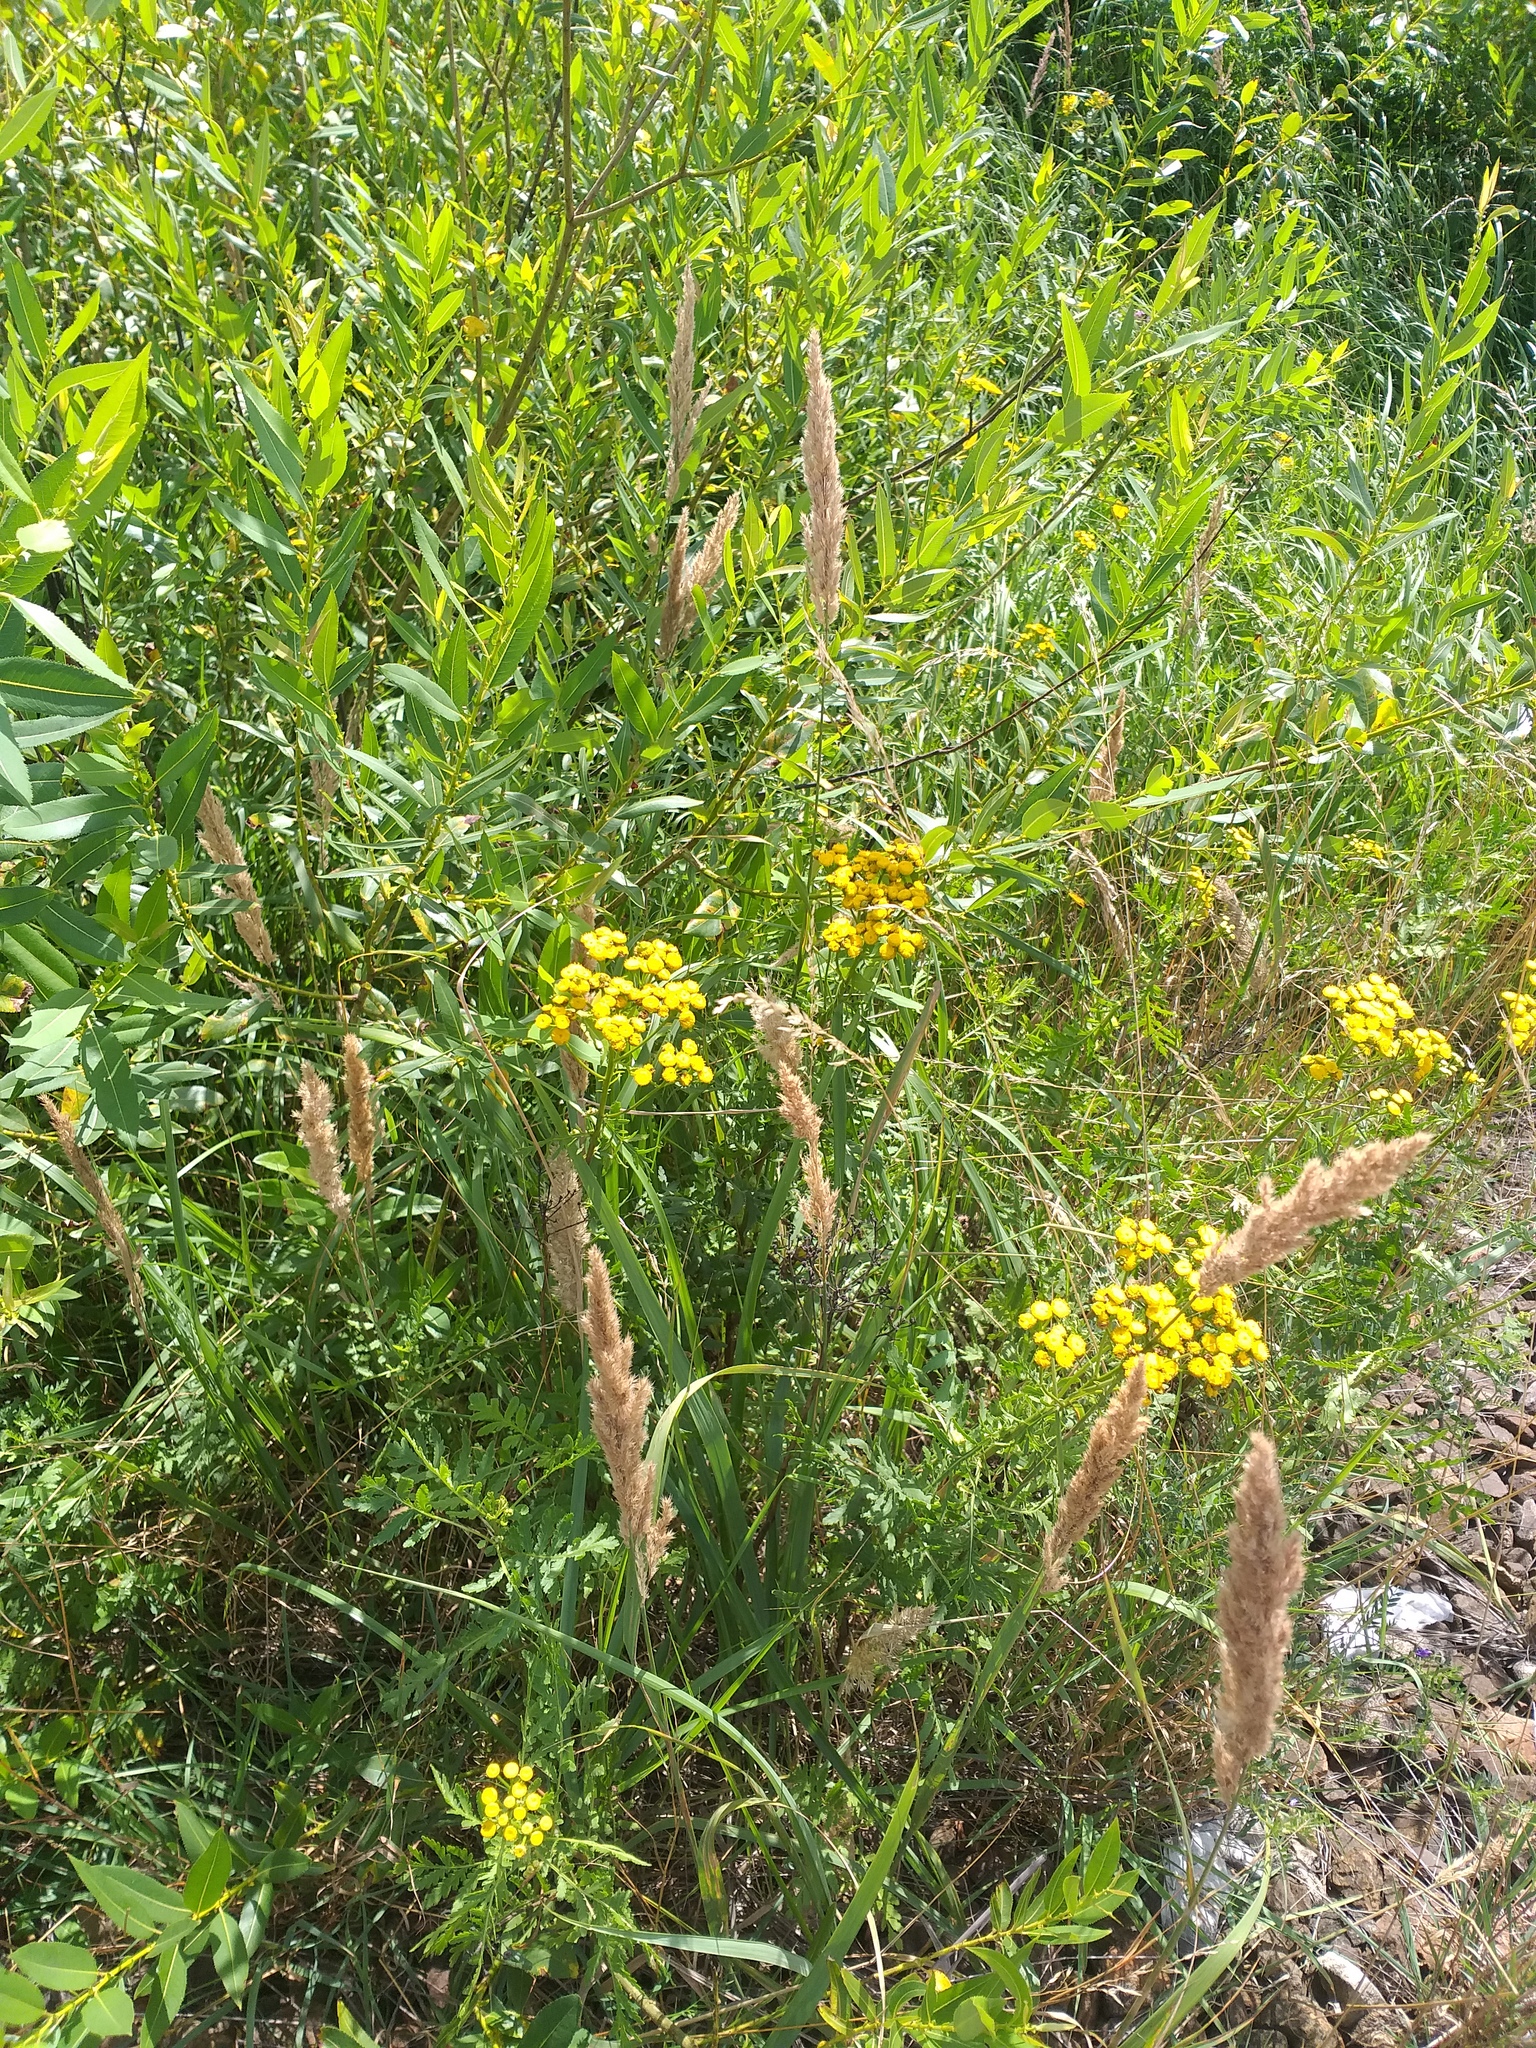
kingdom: Plantae
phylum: Tracheophyta
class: Magnoliopsida
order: Asterales
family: Asteraceae
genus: Tanacetum
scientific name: Tanacetum vulgare
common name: Common tansy
